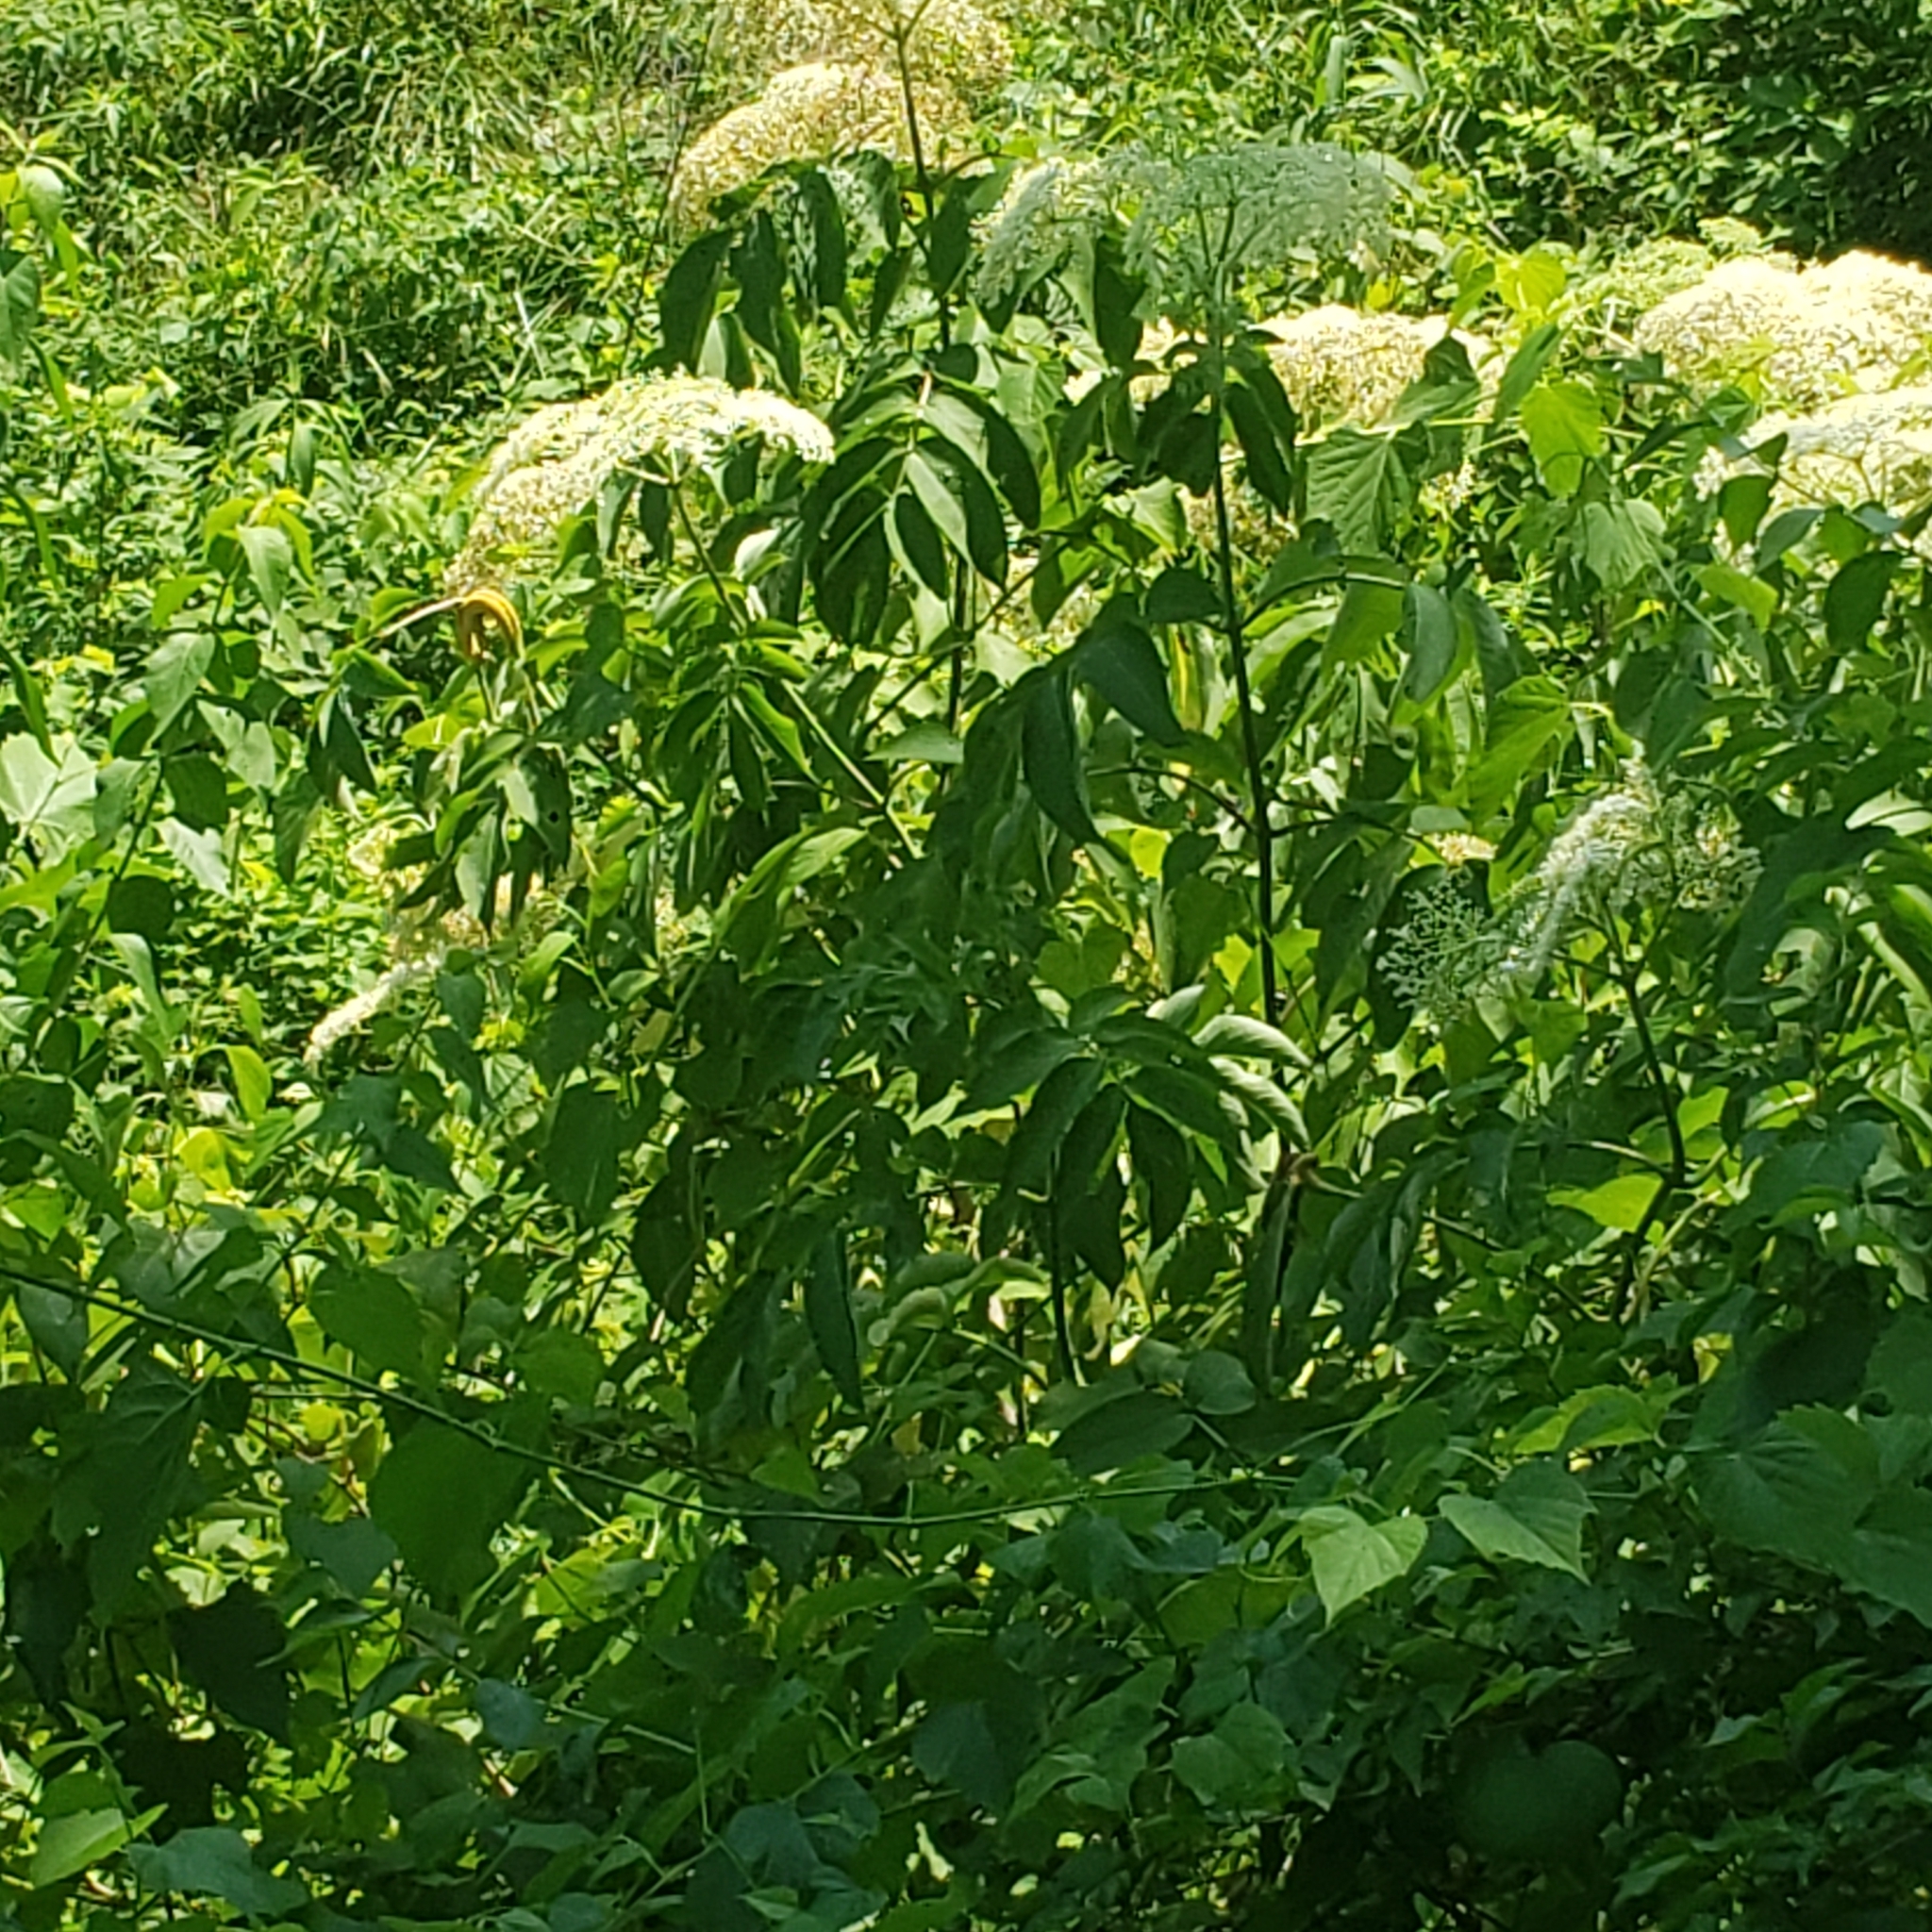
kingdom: Plantae
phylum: Tracheophyta
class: Magnoliopsida
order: Dipsacales
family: Viburnaceae
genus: Sambucus
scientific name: Sambucus canadensis
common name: American elder
